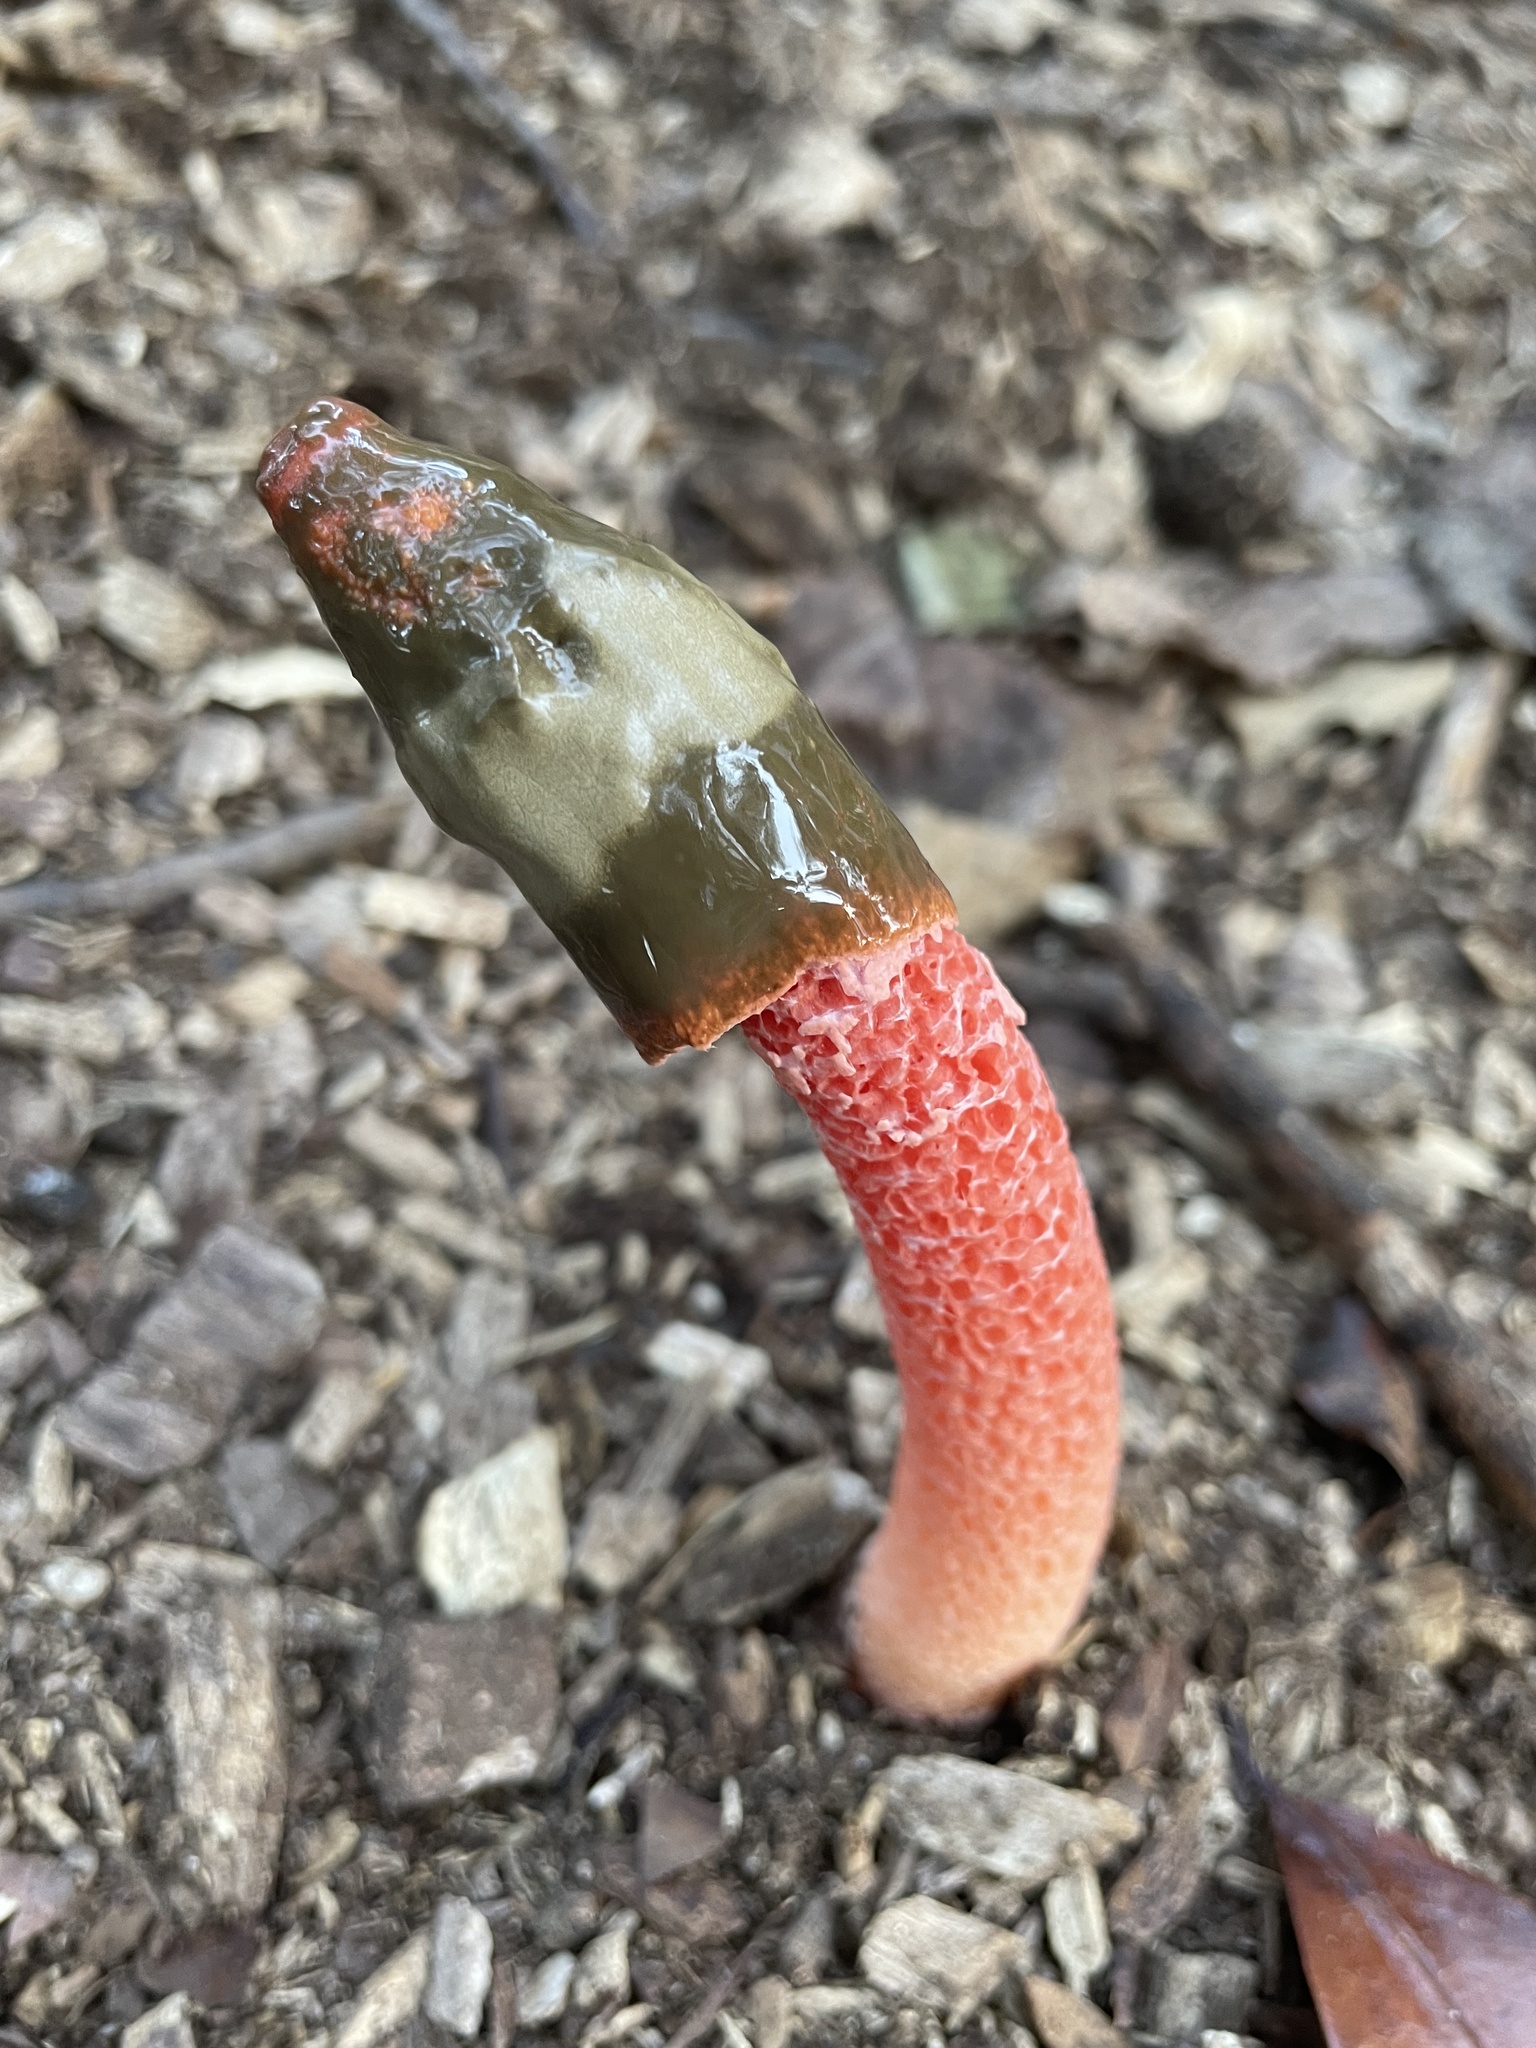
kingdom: Fungi
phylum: Basidiomycota
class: Agaricomycetes
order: Phallales
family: Phallaceae
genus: Phallus
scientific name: Phallus rugulosus
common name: Wrinkly stinkhorn
